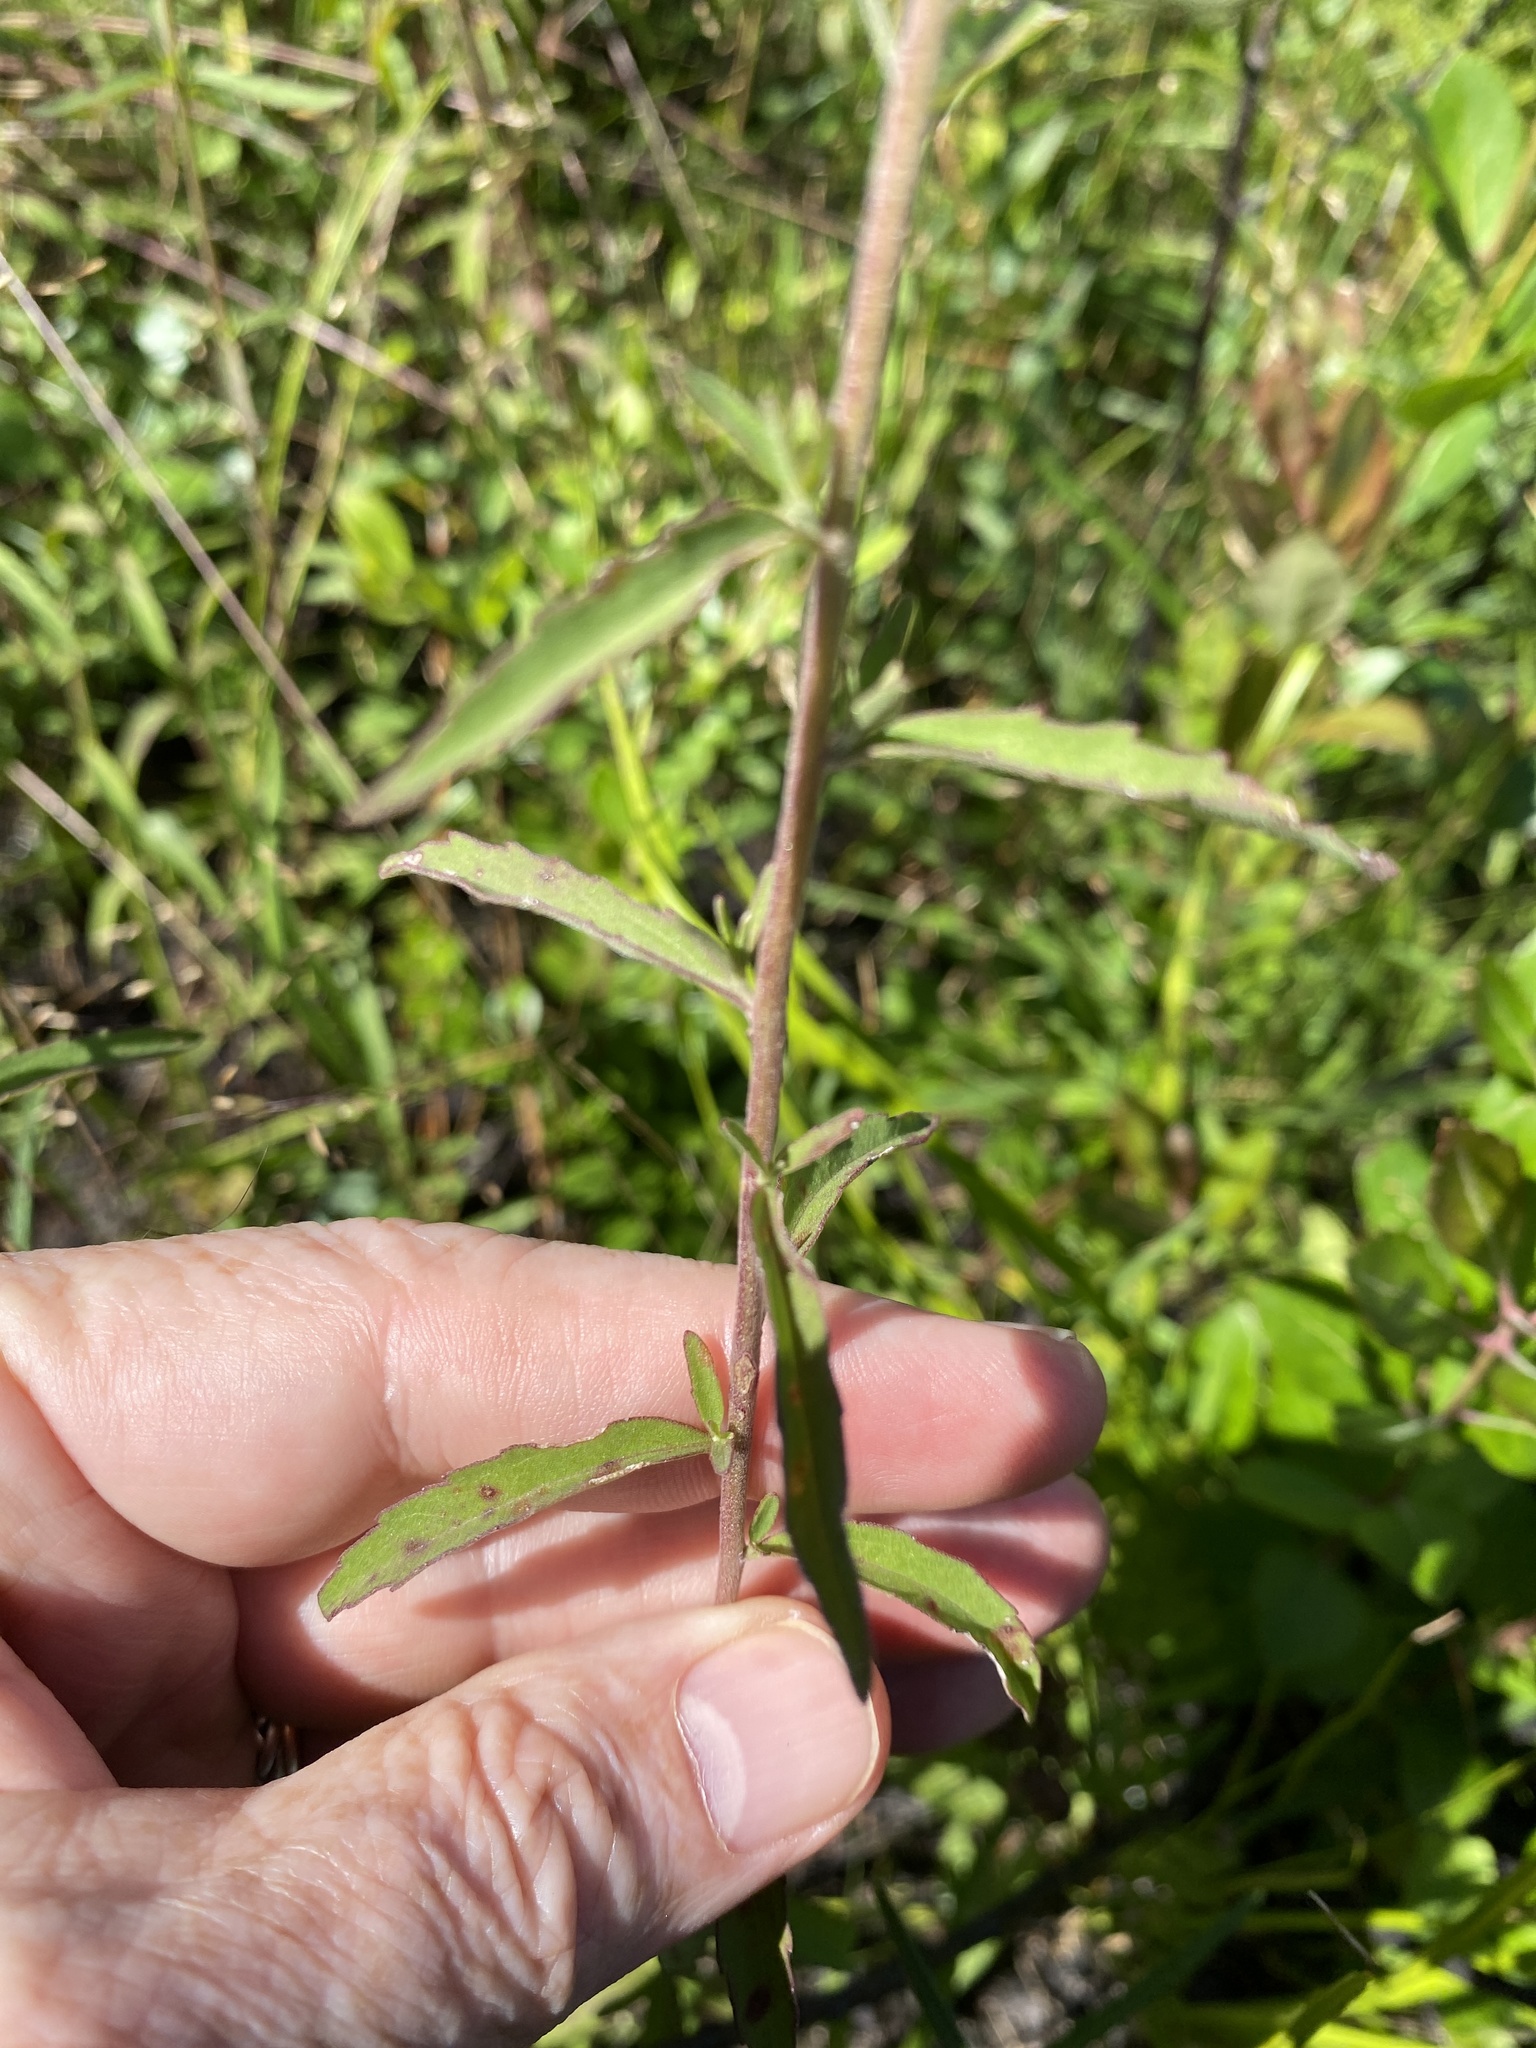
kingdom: Plantae
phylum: Tracheophyta
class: Magnoliopsida
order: Asterales
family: Asteraceae
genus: Eupatorium
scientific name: Eupatorium mohrii
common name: Mohr's thoroughwort
